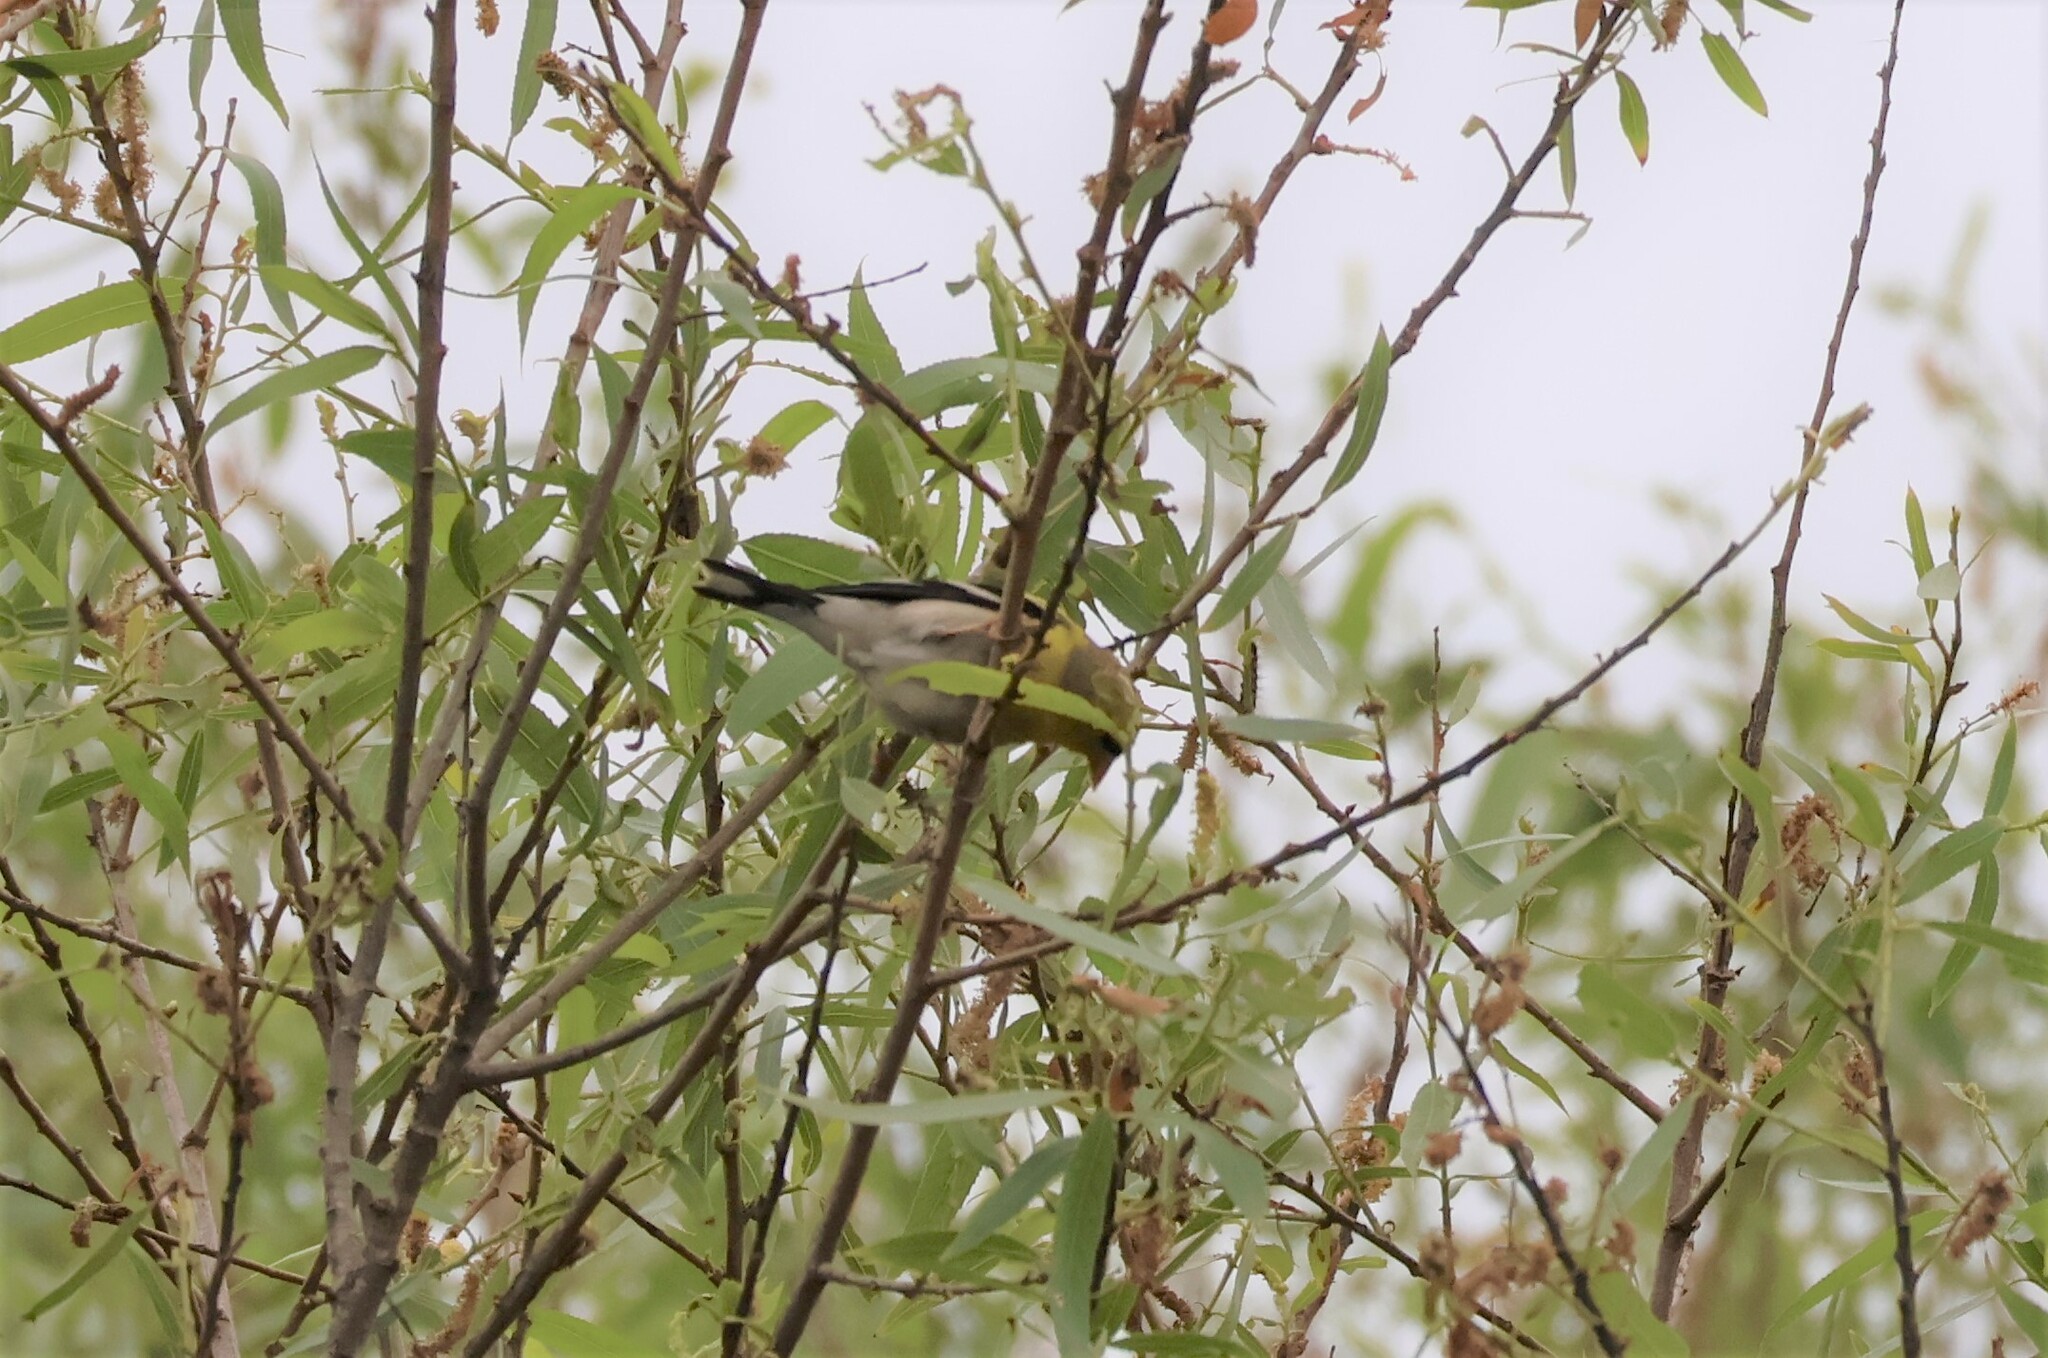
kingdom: Animalia
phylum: Chordata
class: Aves
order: Passeriformes
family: Fringillidae
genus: Spinus
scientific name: Spinus tristis
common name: American goldfinch
